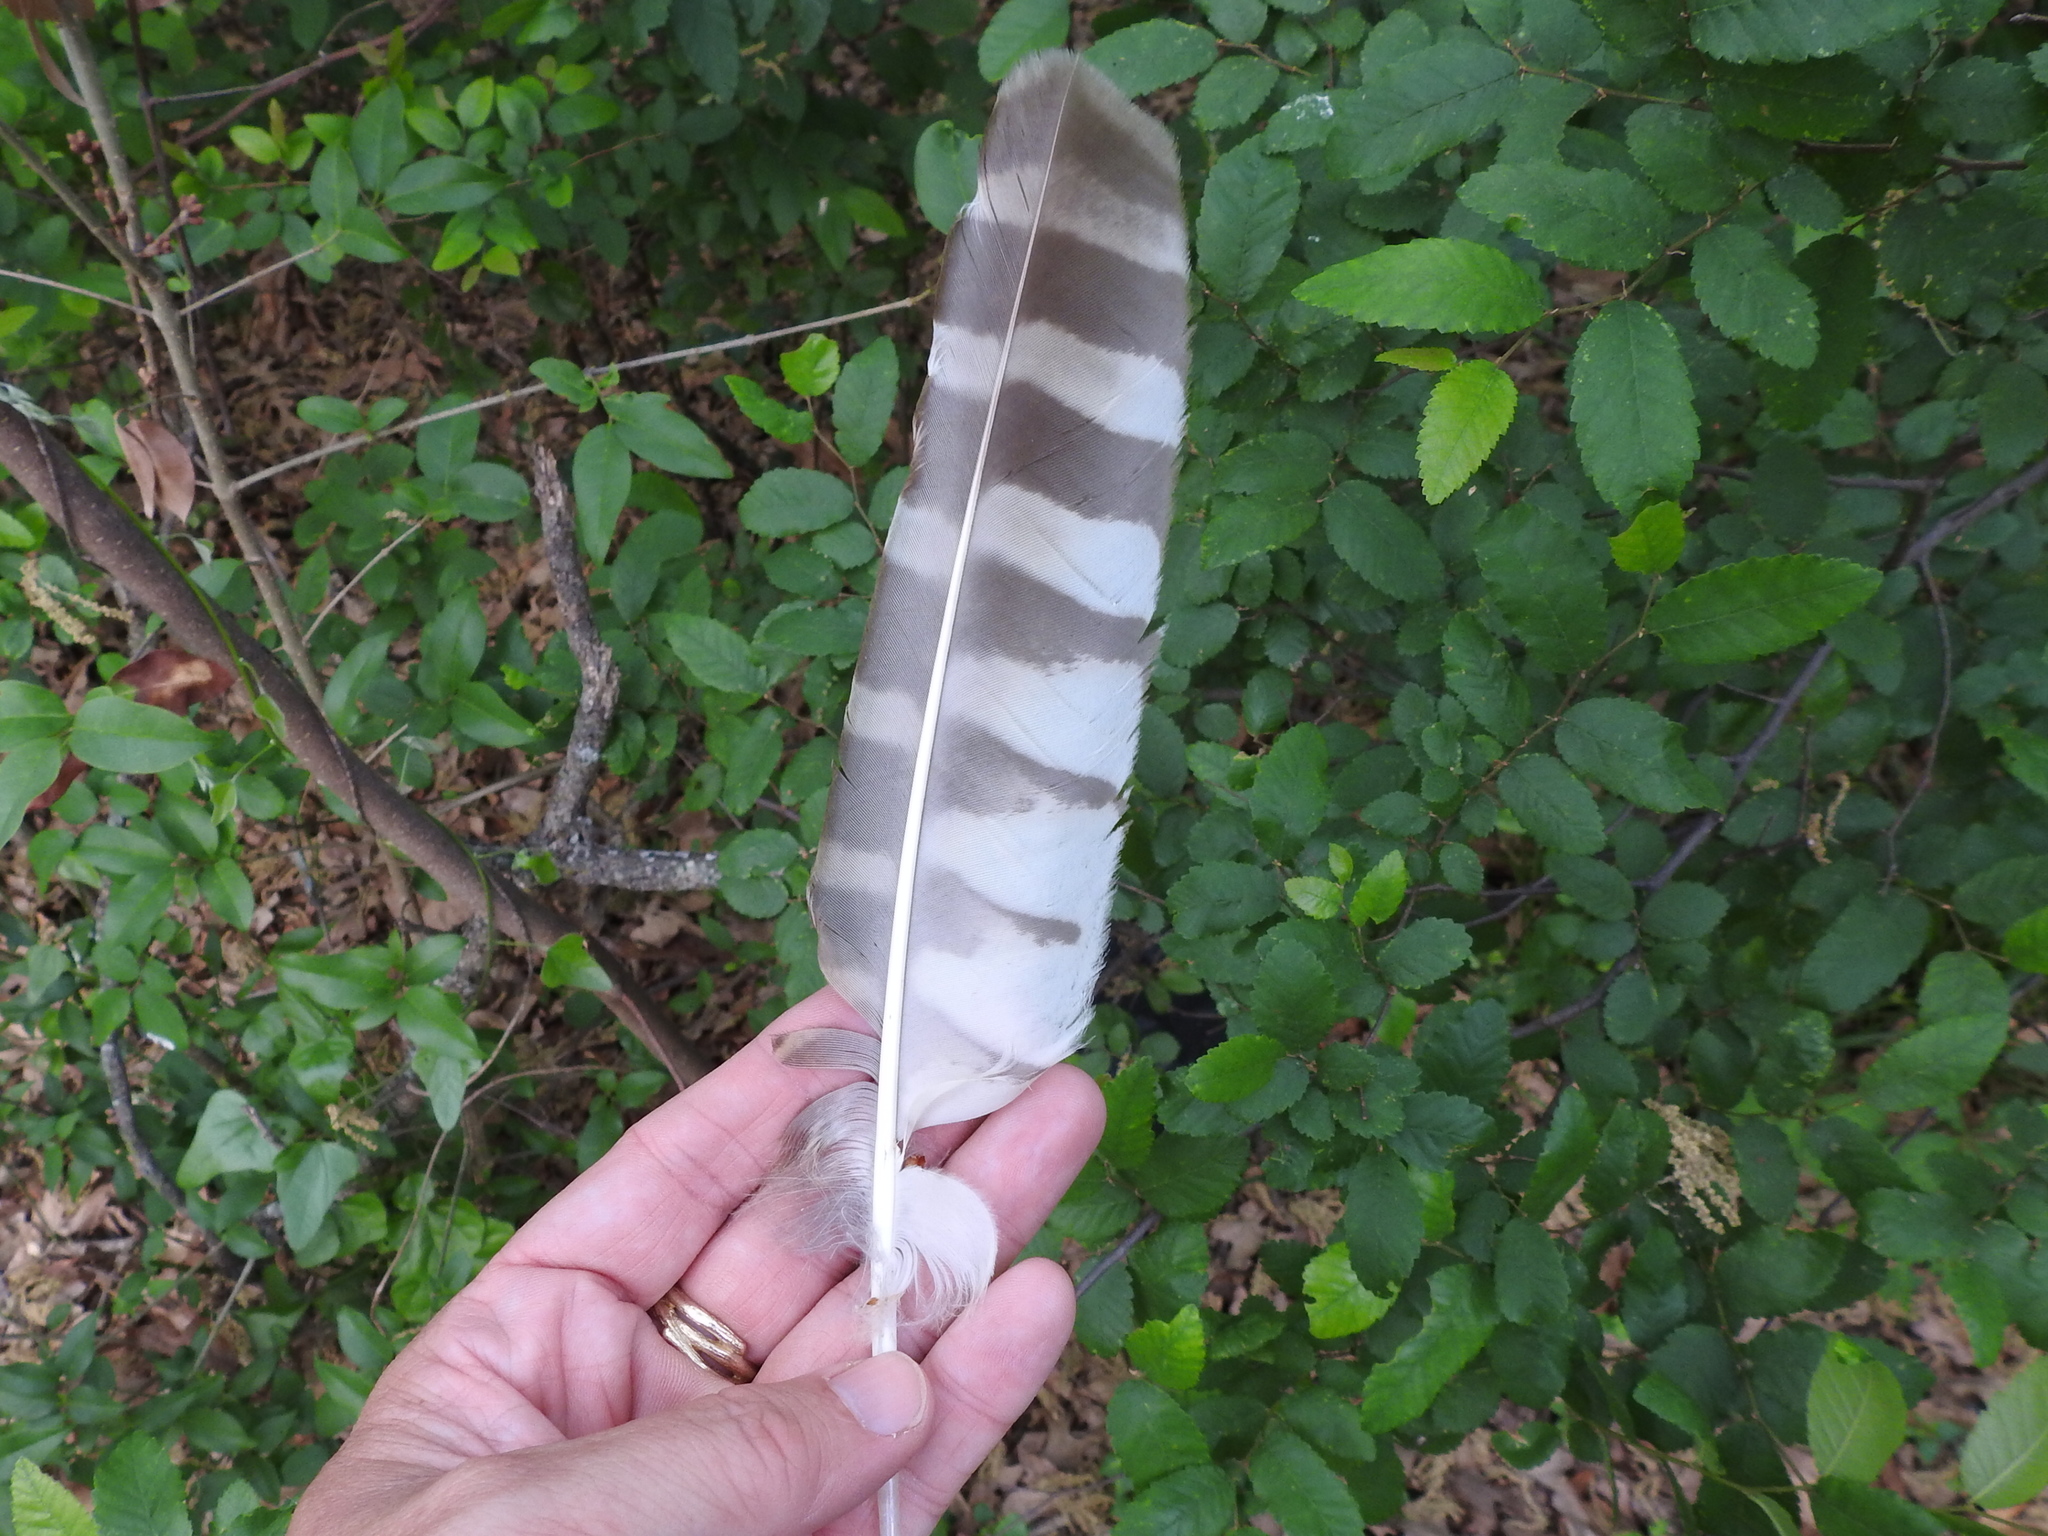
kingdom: Animalia
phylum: Chordata
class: Aves
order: Strigiformes
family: Strigidae
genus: Strix
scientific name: Strix varia
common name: Barred owl
